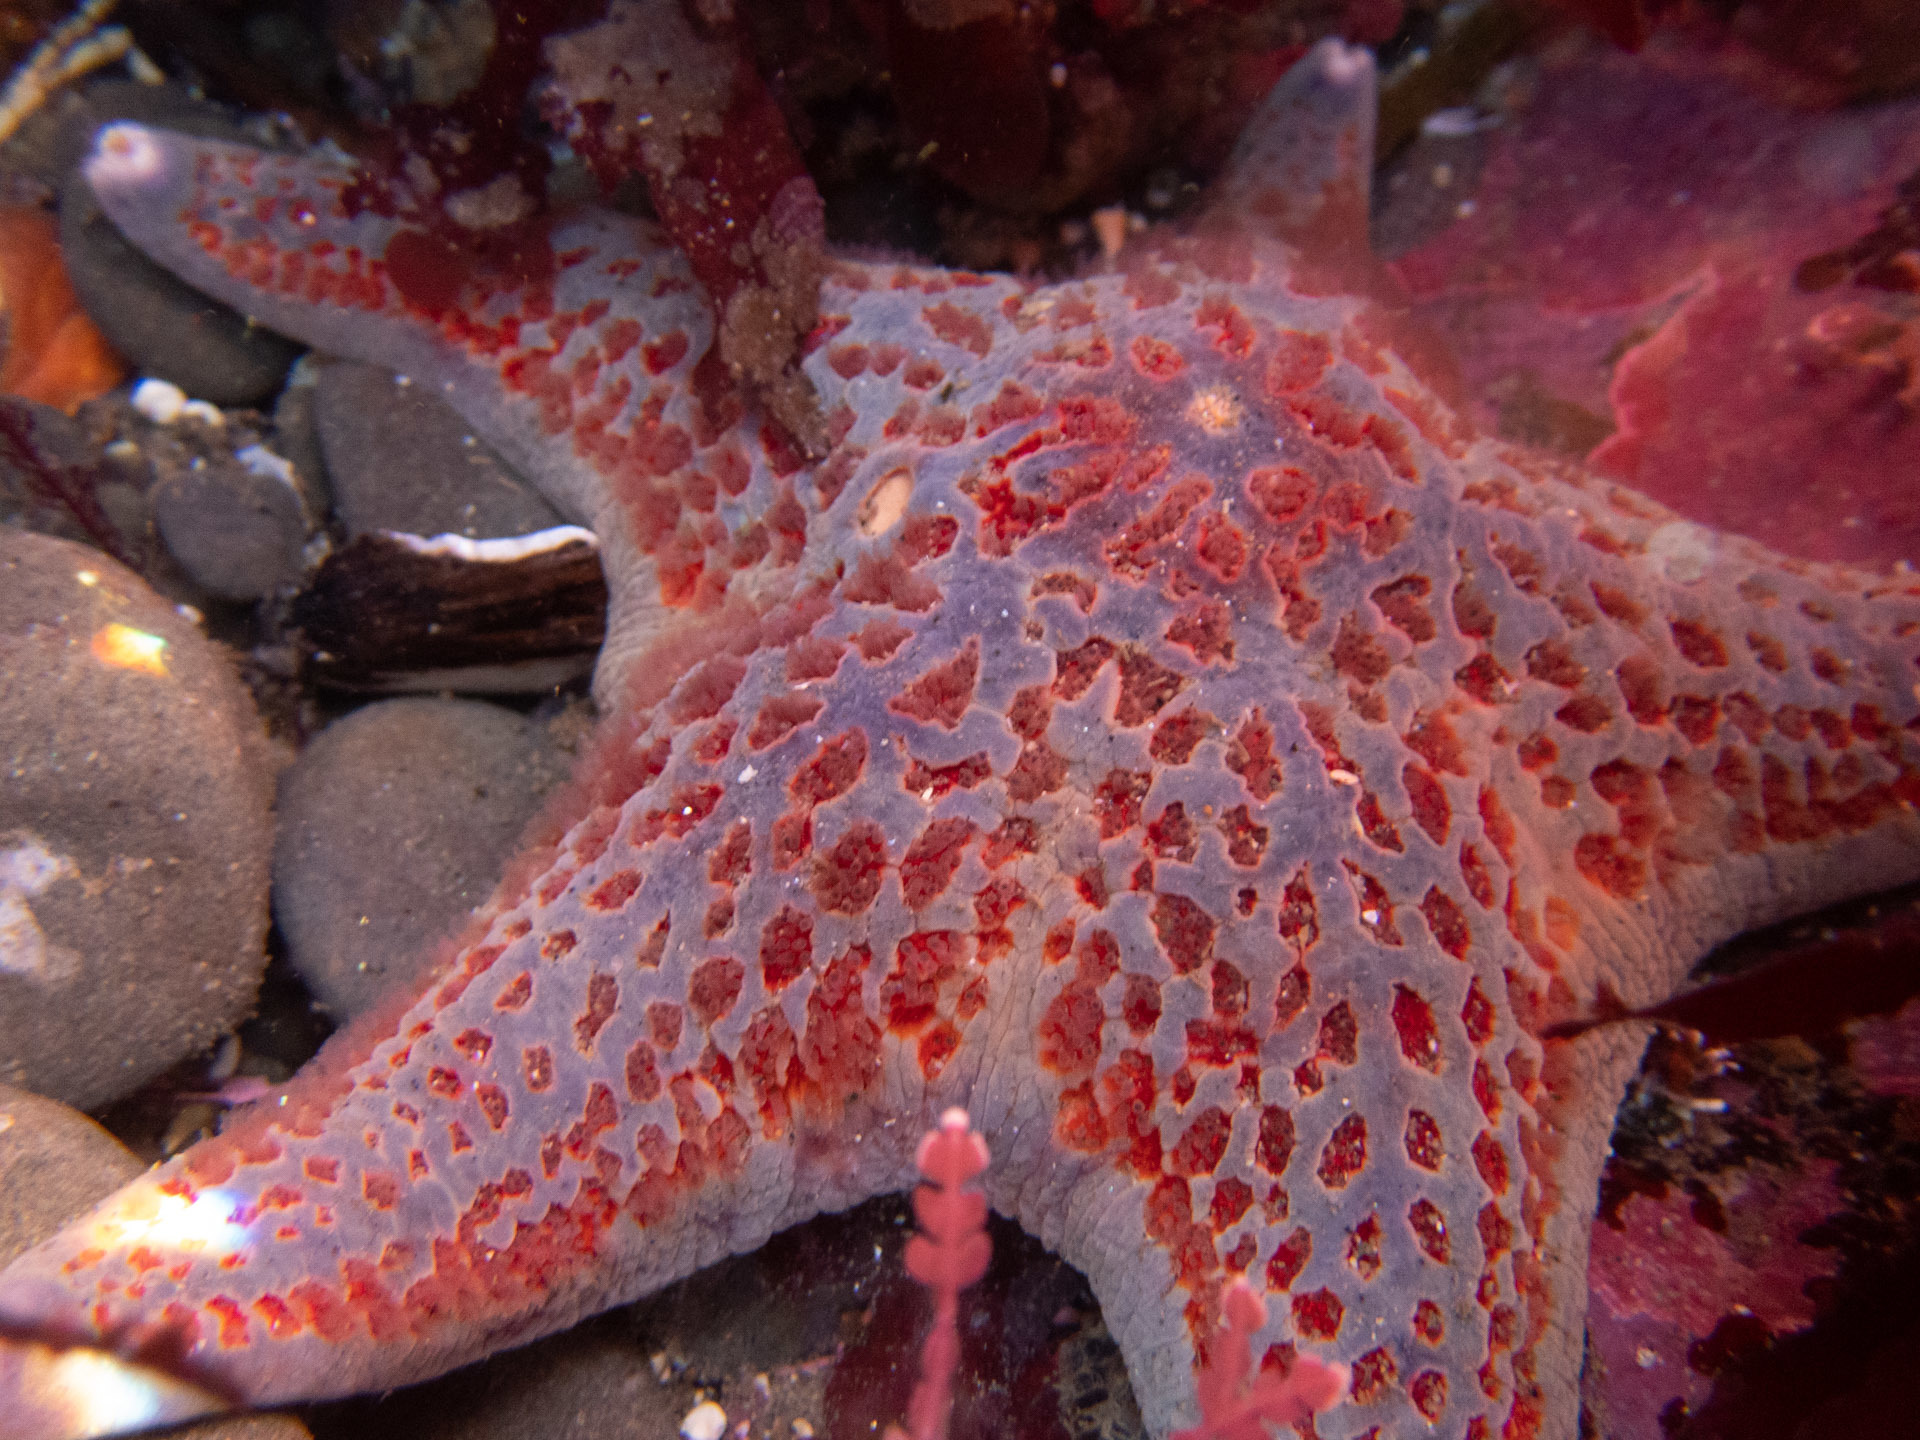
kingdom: Animalia
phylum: Echinodermata
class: Asteroidea
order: Valvatida
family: Asteropseidae
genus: Dermasterias
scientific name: Dermasterias imbricata
